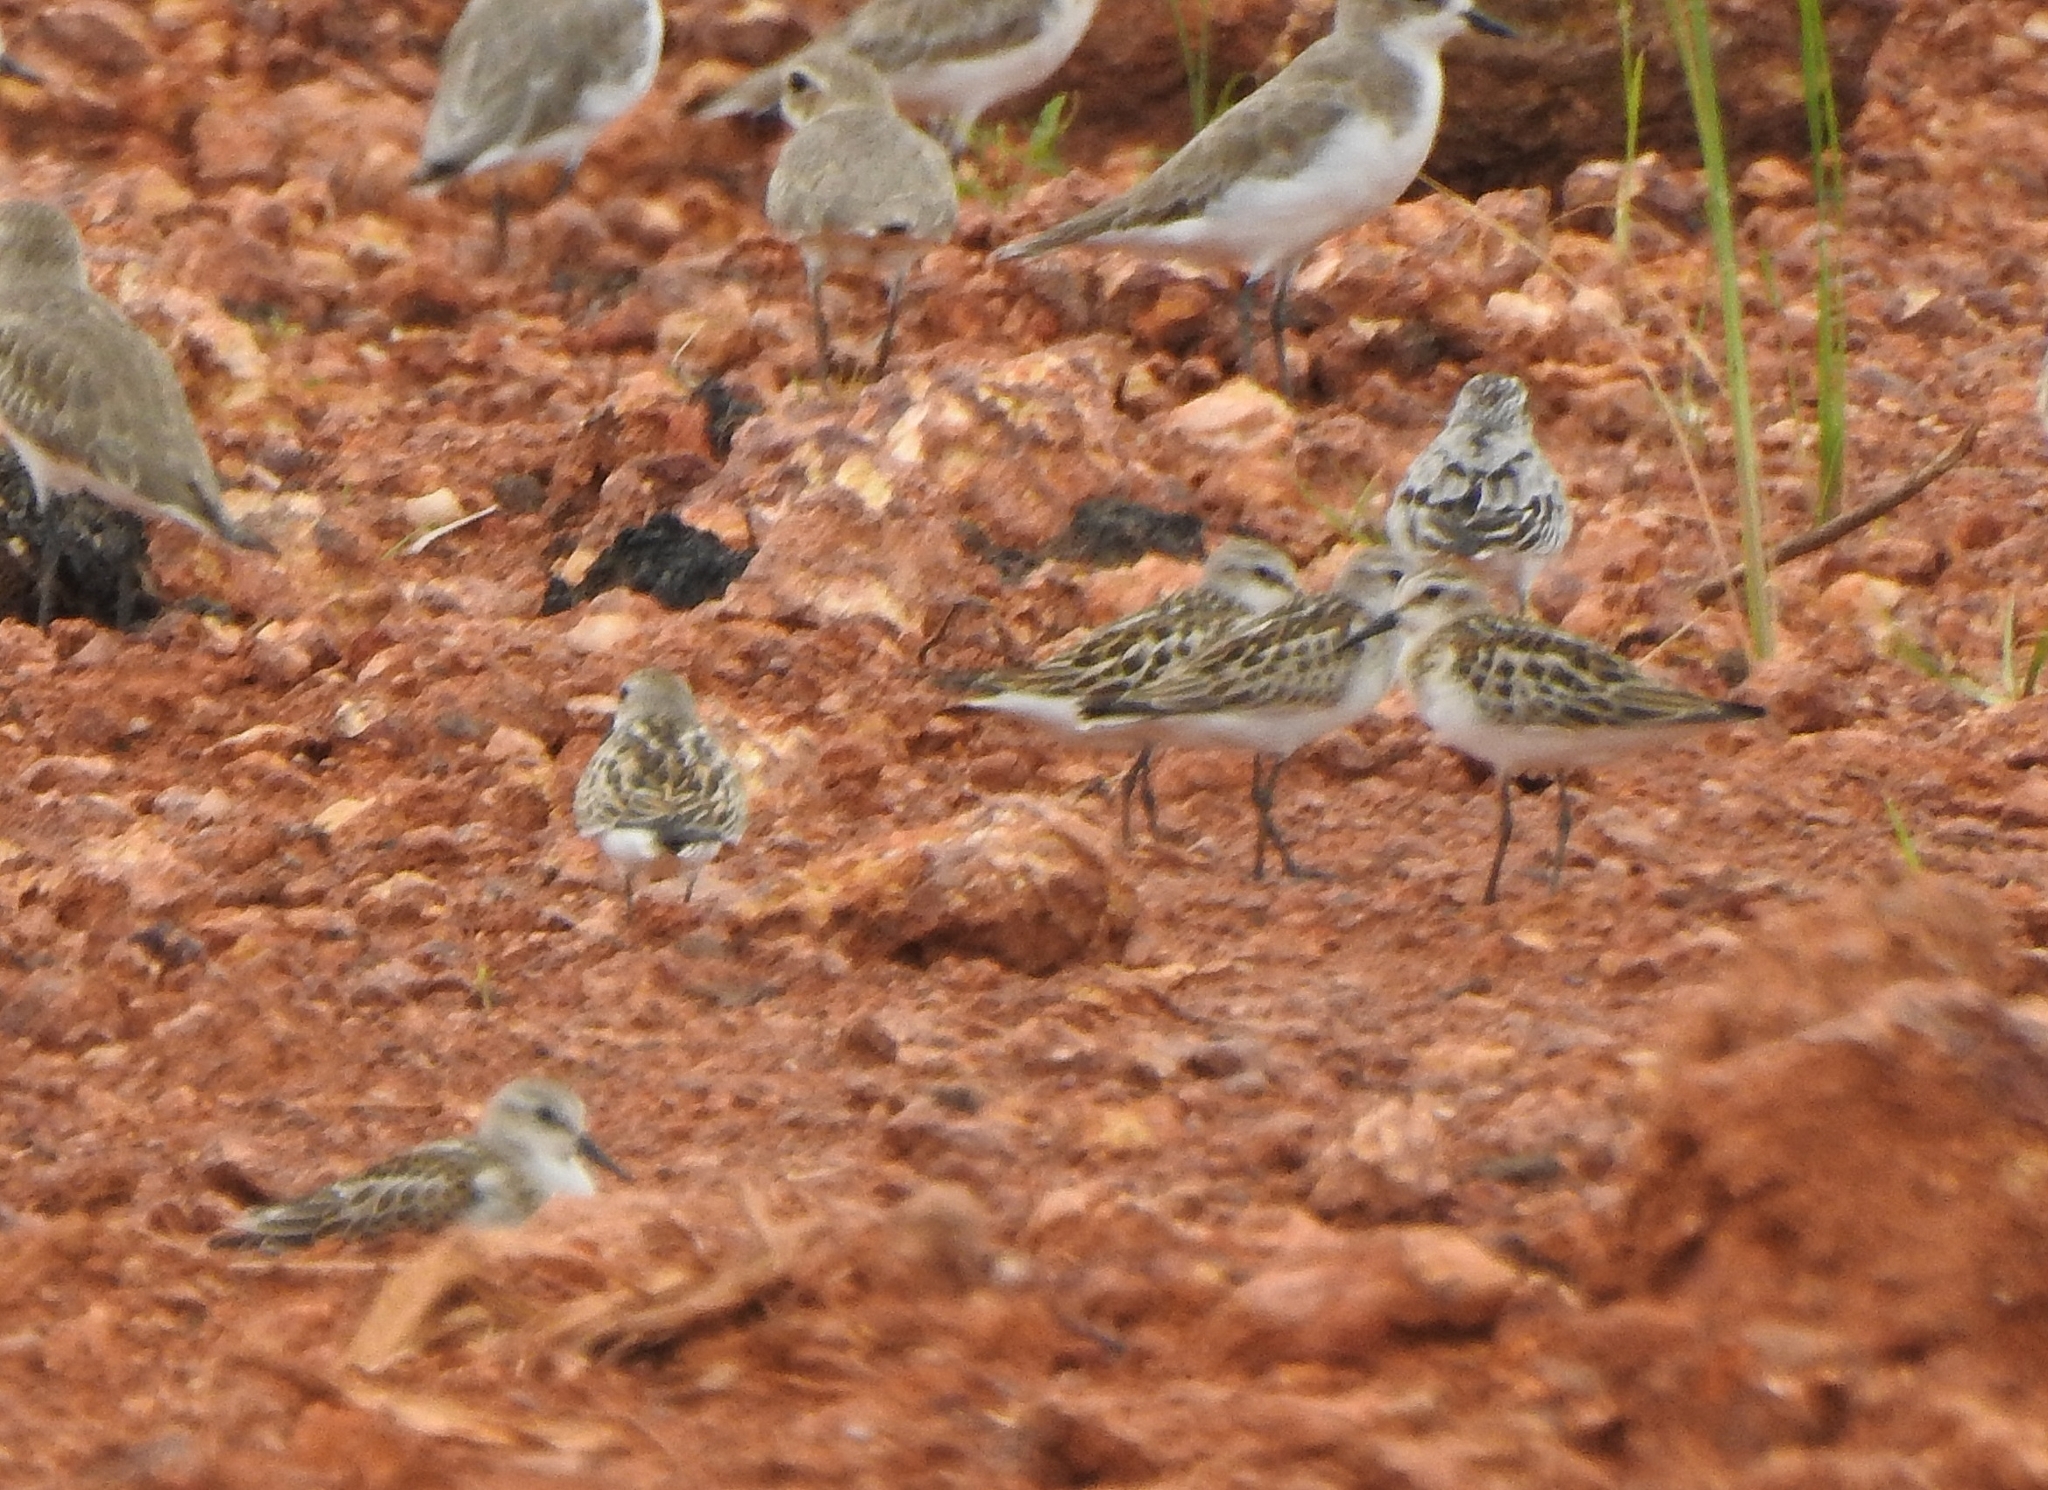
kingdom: Animalia
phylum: Chordata
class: Aves
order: Charadriiformes
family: Scolopacidae
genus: Calidris
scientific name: Calidris minuta
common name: Little stint
